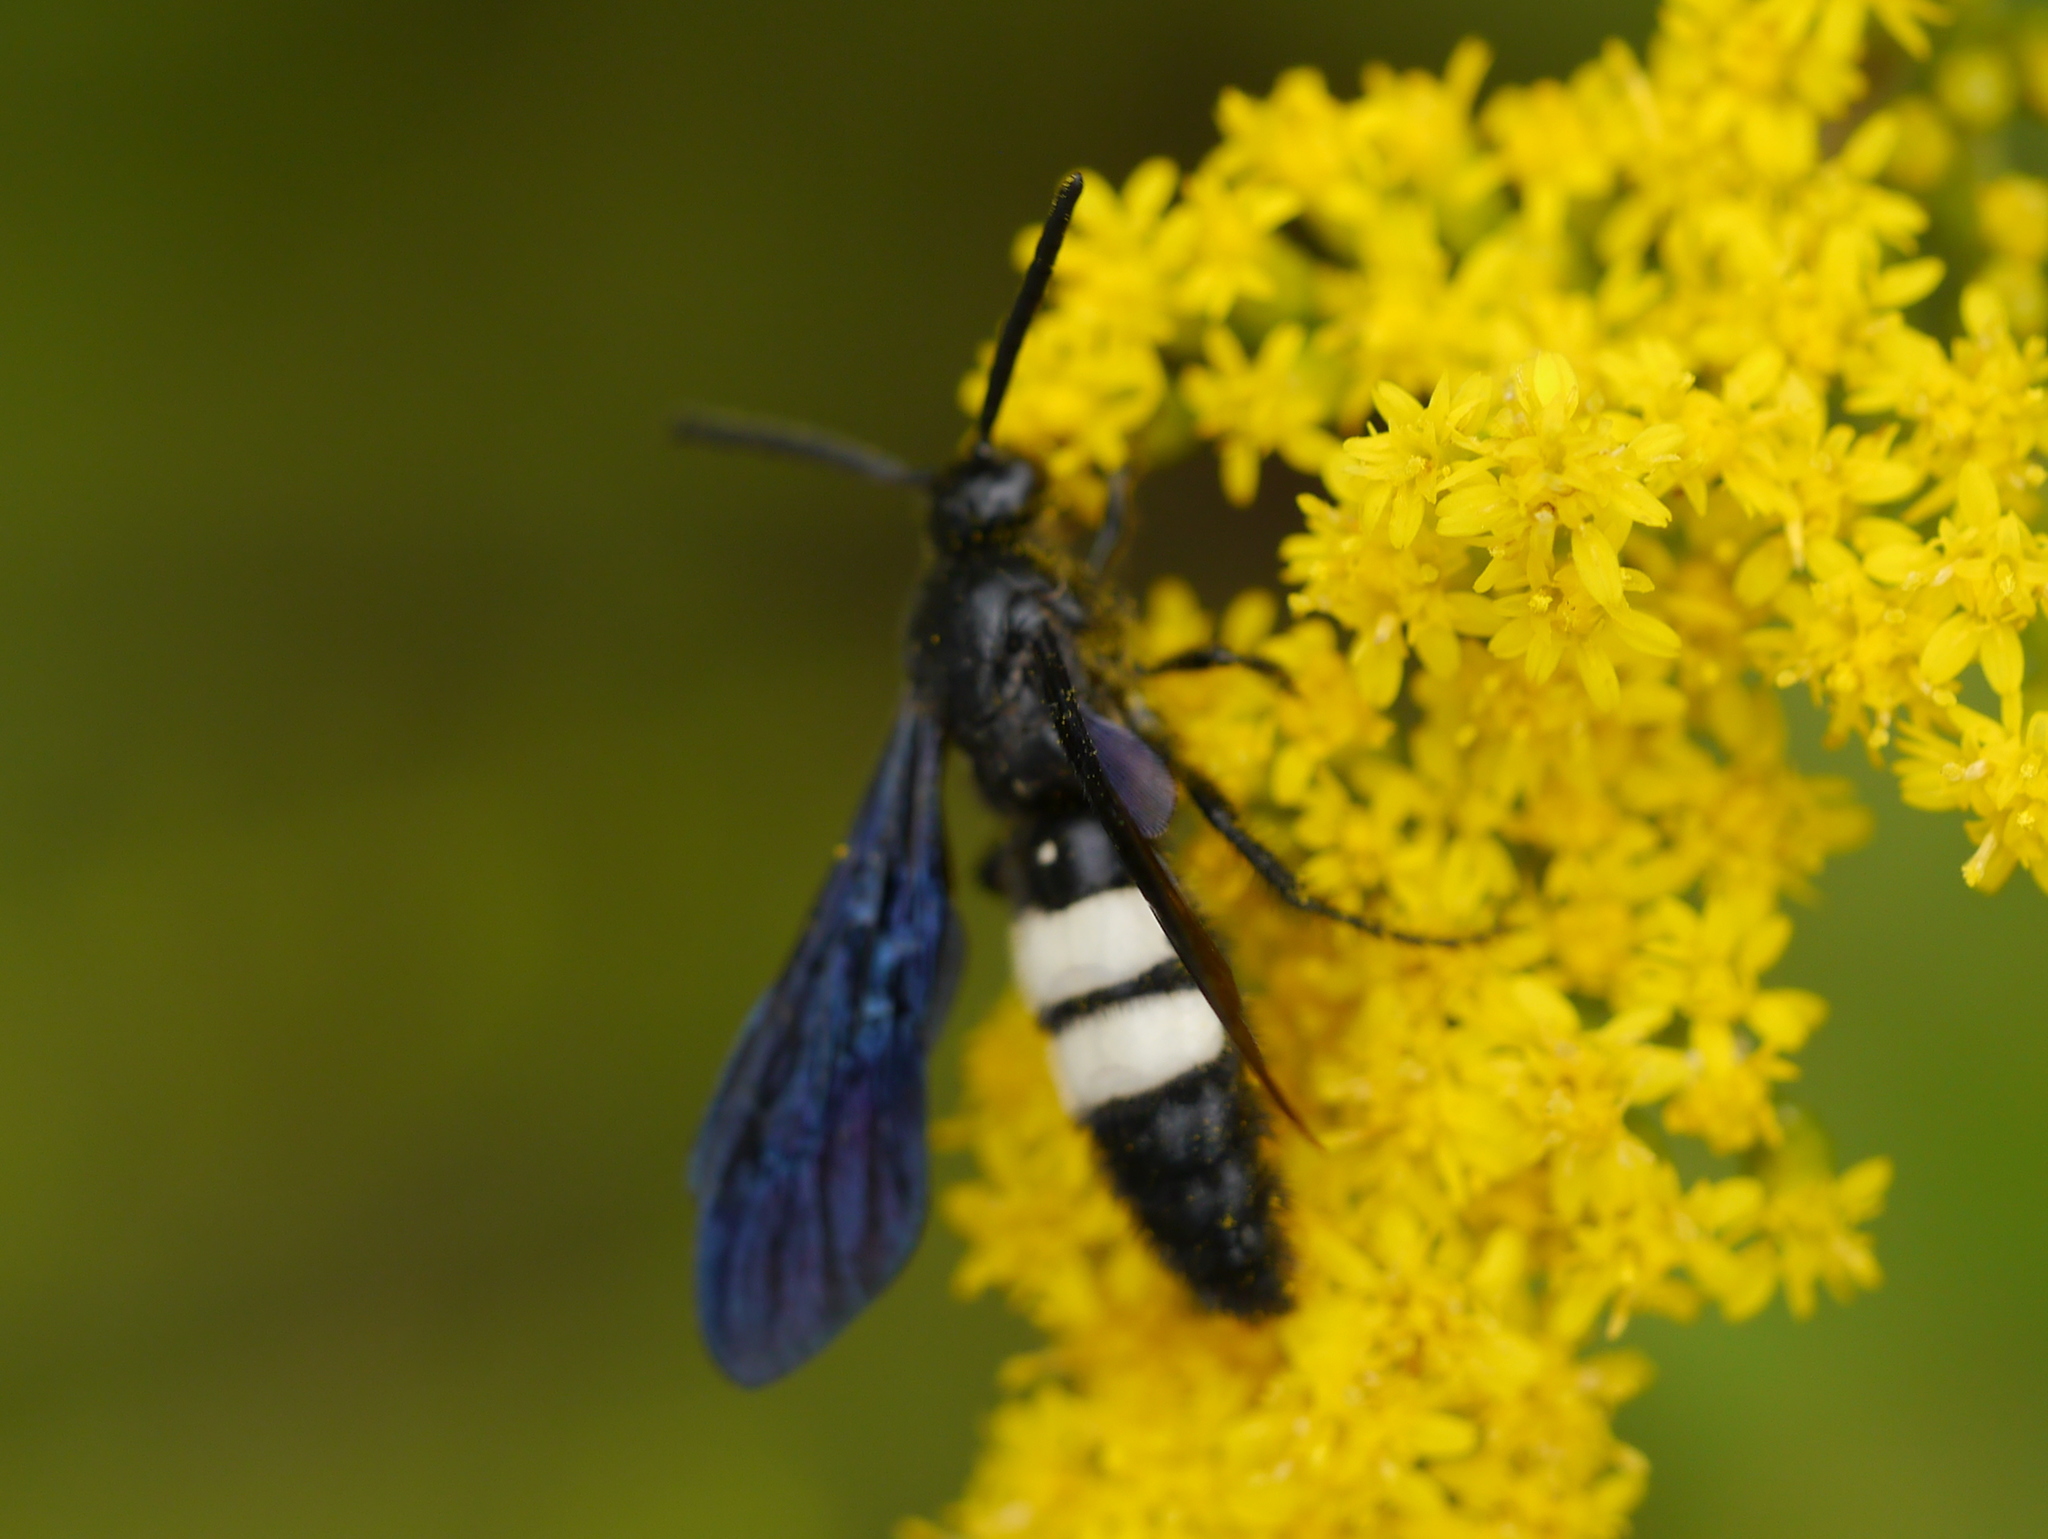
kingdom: Animalia
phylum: Arthropoda
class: Insecta
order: Hymenoptera
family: Scoliidae
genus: Scolia
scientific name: Scolia bicincta
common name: Double-banded scoliid wasp
